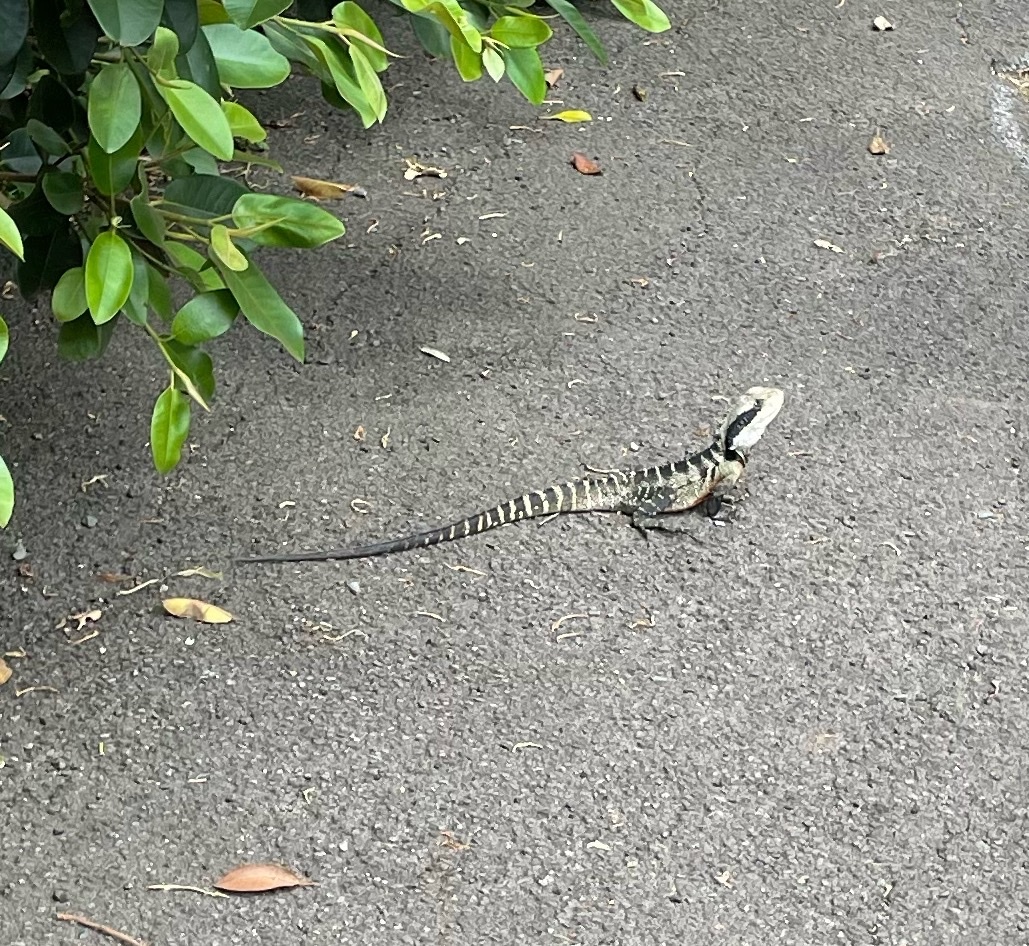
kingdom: Animalia
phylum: Chordata
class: Squamata
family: Agamidae
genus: Intellagama
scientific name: Intellagama lesueurii
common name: Eastern water dragon
